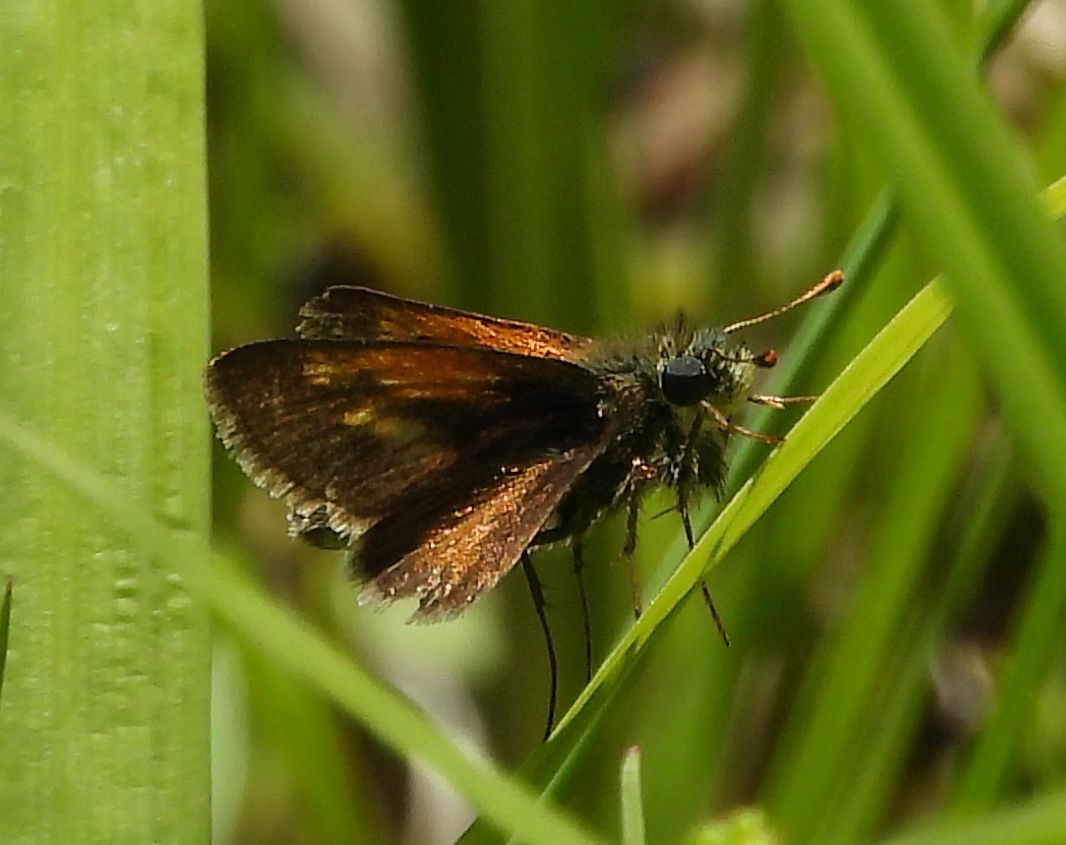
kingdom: Animalia
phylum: Arthropoda
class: Insecta
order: Lepidoptera
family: Hesperiidae
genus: Polites
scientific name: Polites themistocles
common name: Tawny-edged skipper
